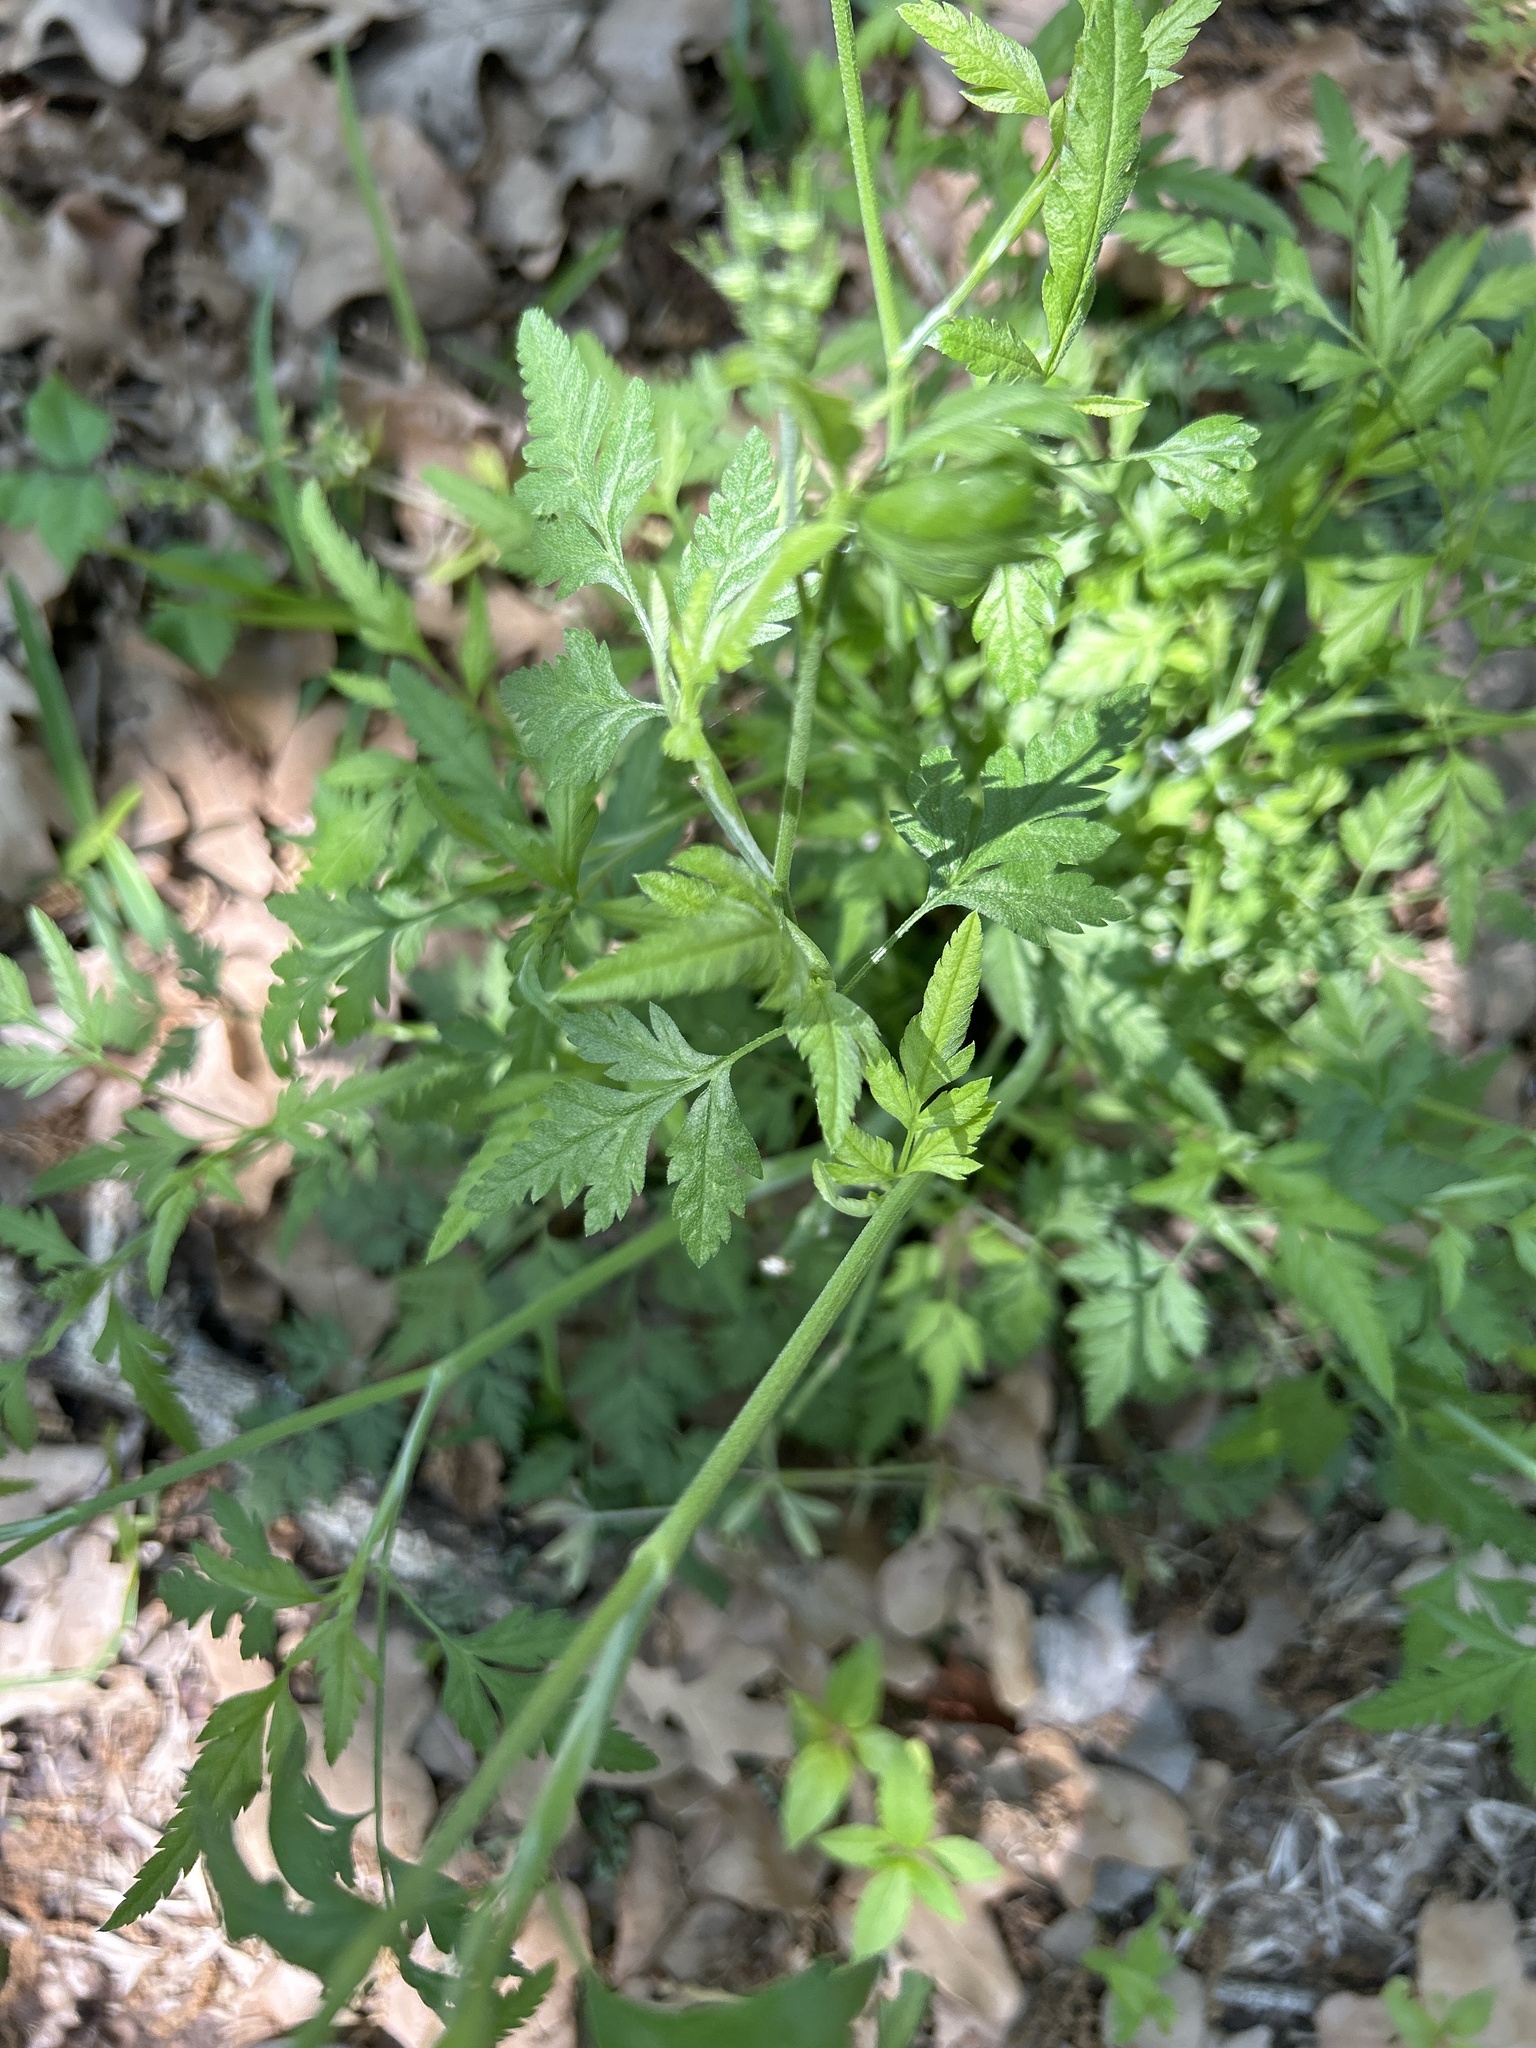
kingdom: Plantae
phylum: Tracheophyta
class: Magnoliopsida
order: Apiales
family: Apiaceae
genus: Torilis
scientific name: Torilis arvensis
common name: Spreading hedge-parsley
